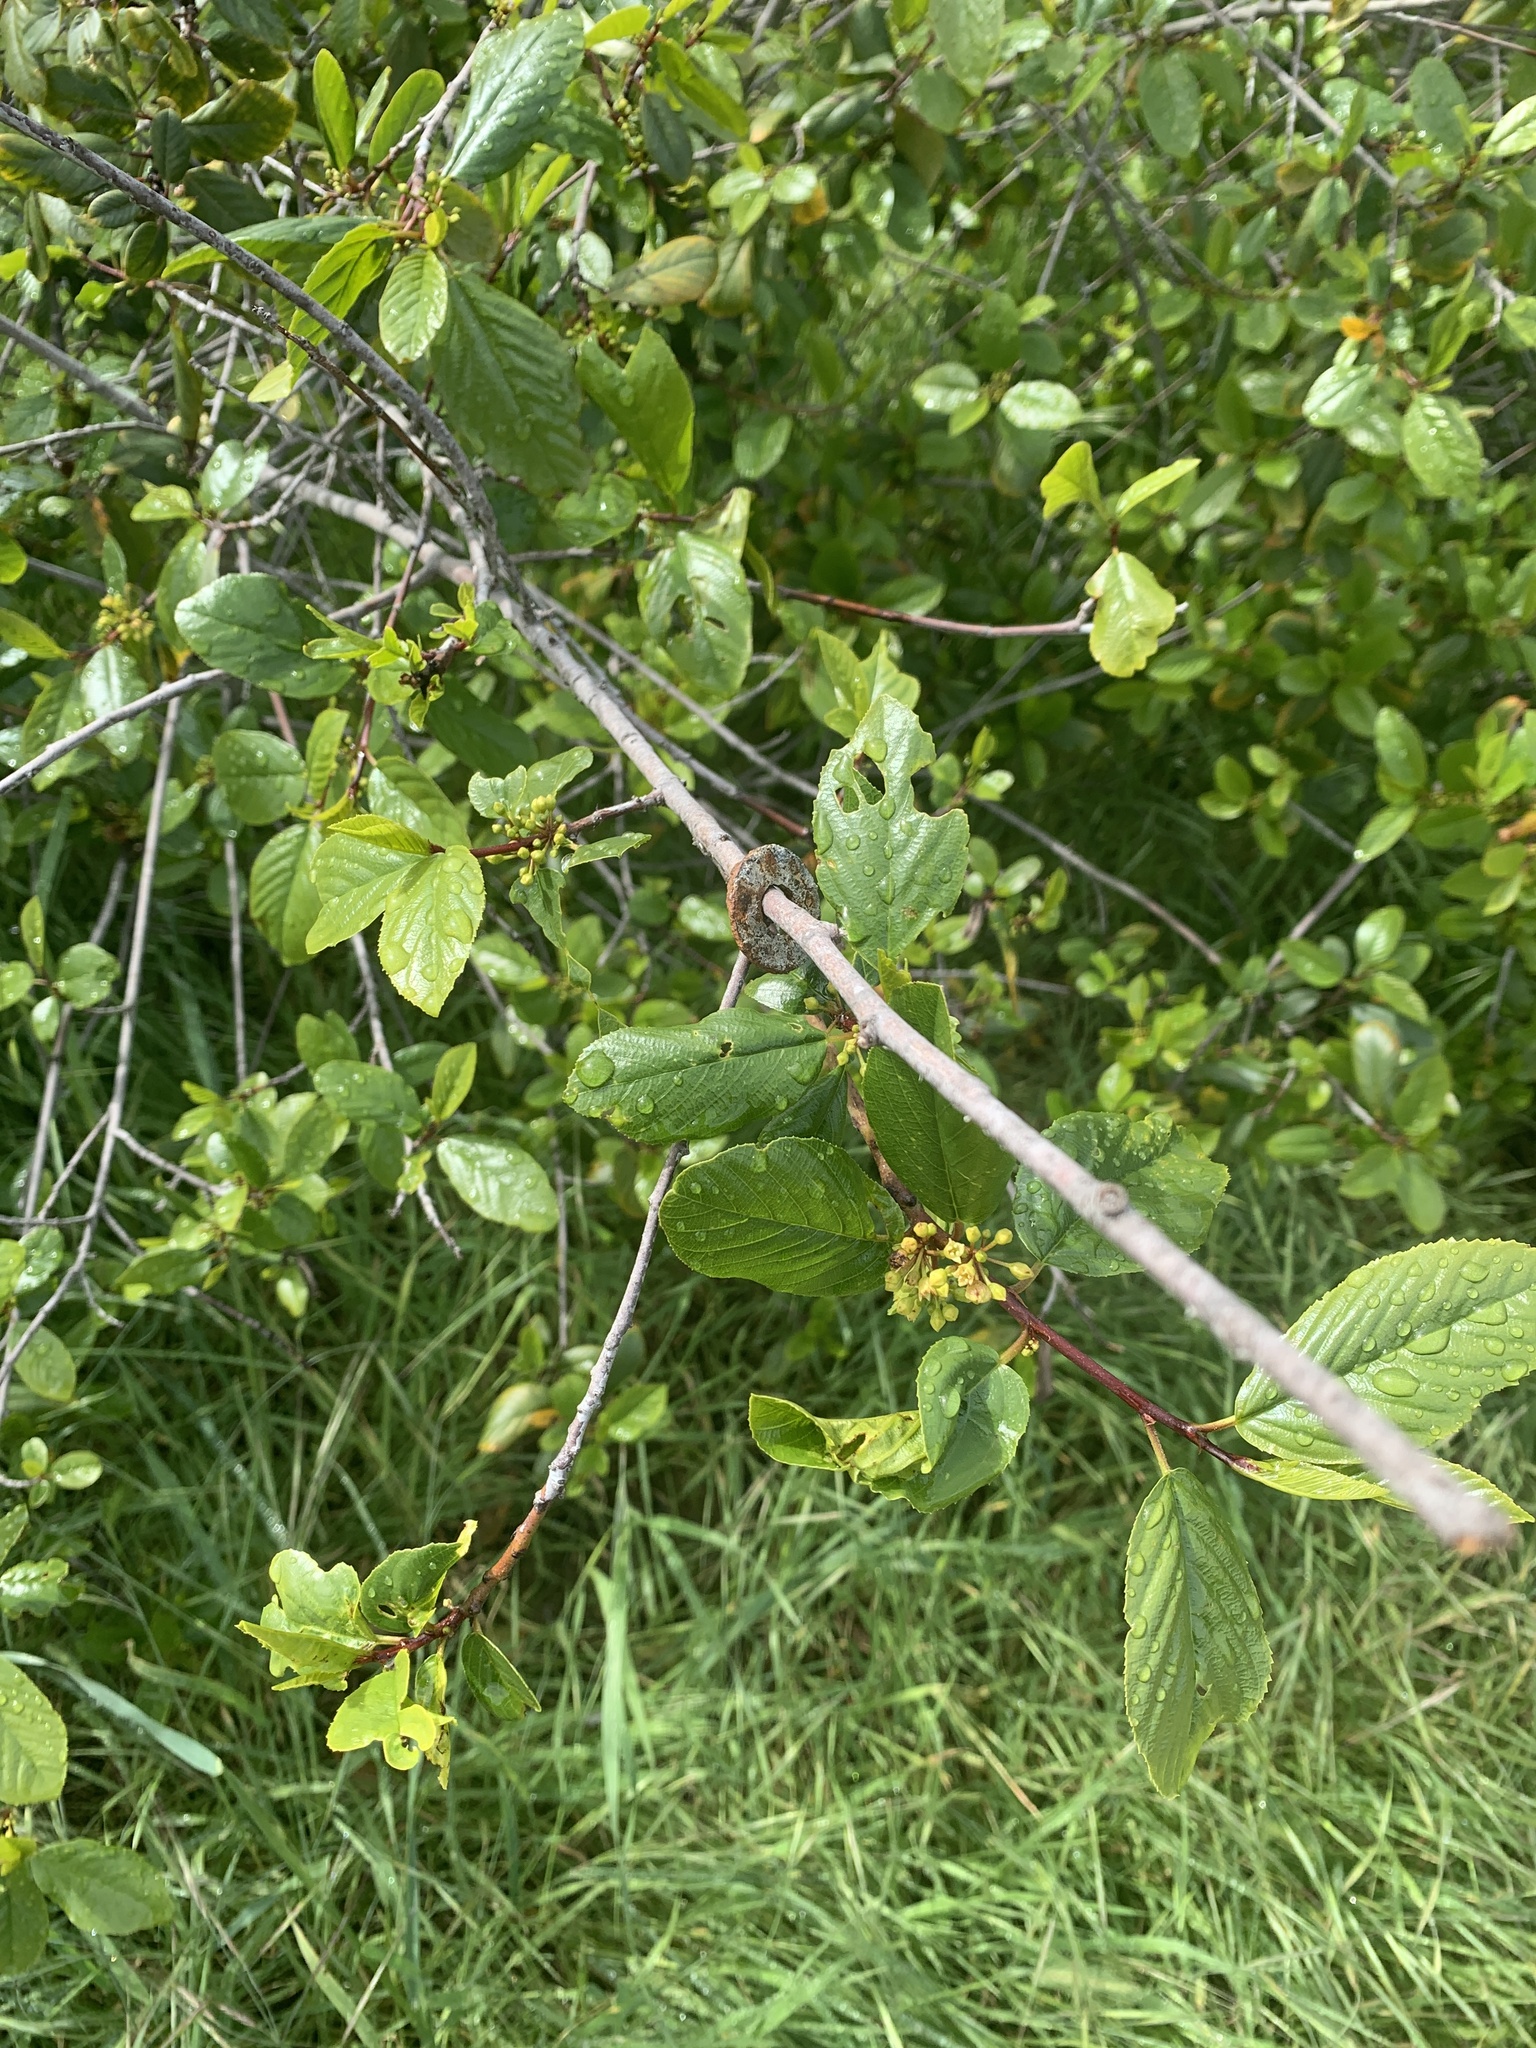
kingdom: Plantae
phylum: Tracheophyta
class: Magnoliopsida
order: Rosales
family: Rhamnaceae
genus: Frangula
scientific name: Frangula californica
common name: California buckthorn
